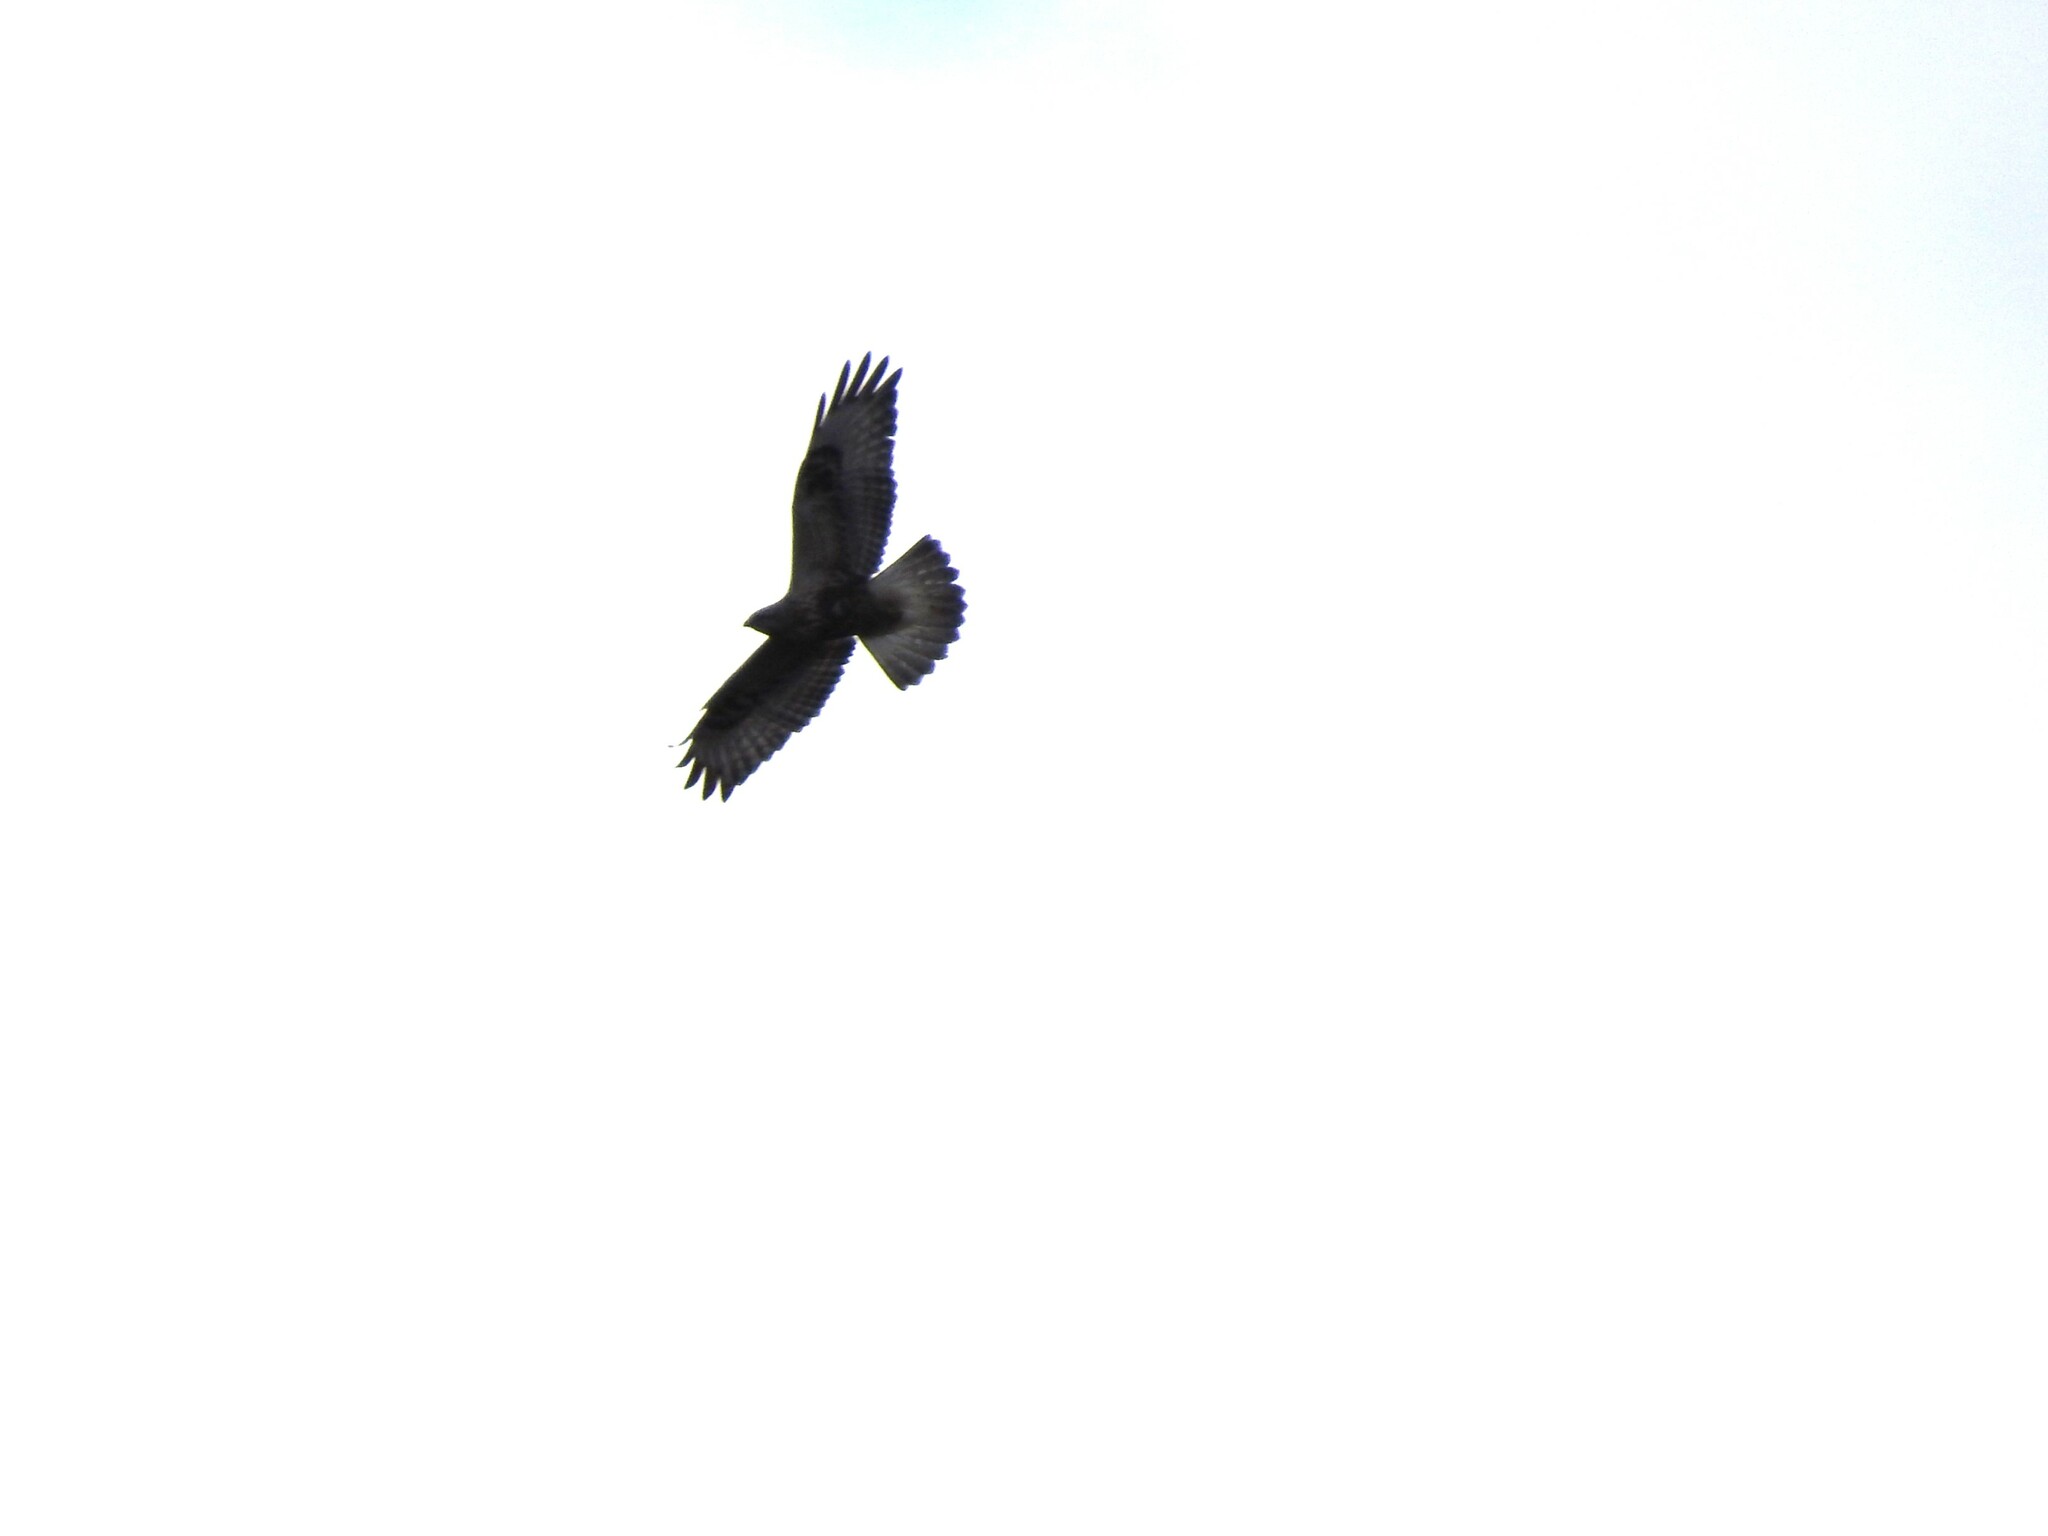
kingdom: Animalia
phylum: Chordata
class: Aves
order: Accipitriformes
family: Accipitridae
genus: Buteo
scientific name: Buteo lagopus
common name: Rough-legged buzzard
